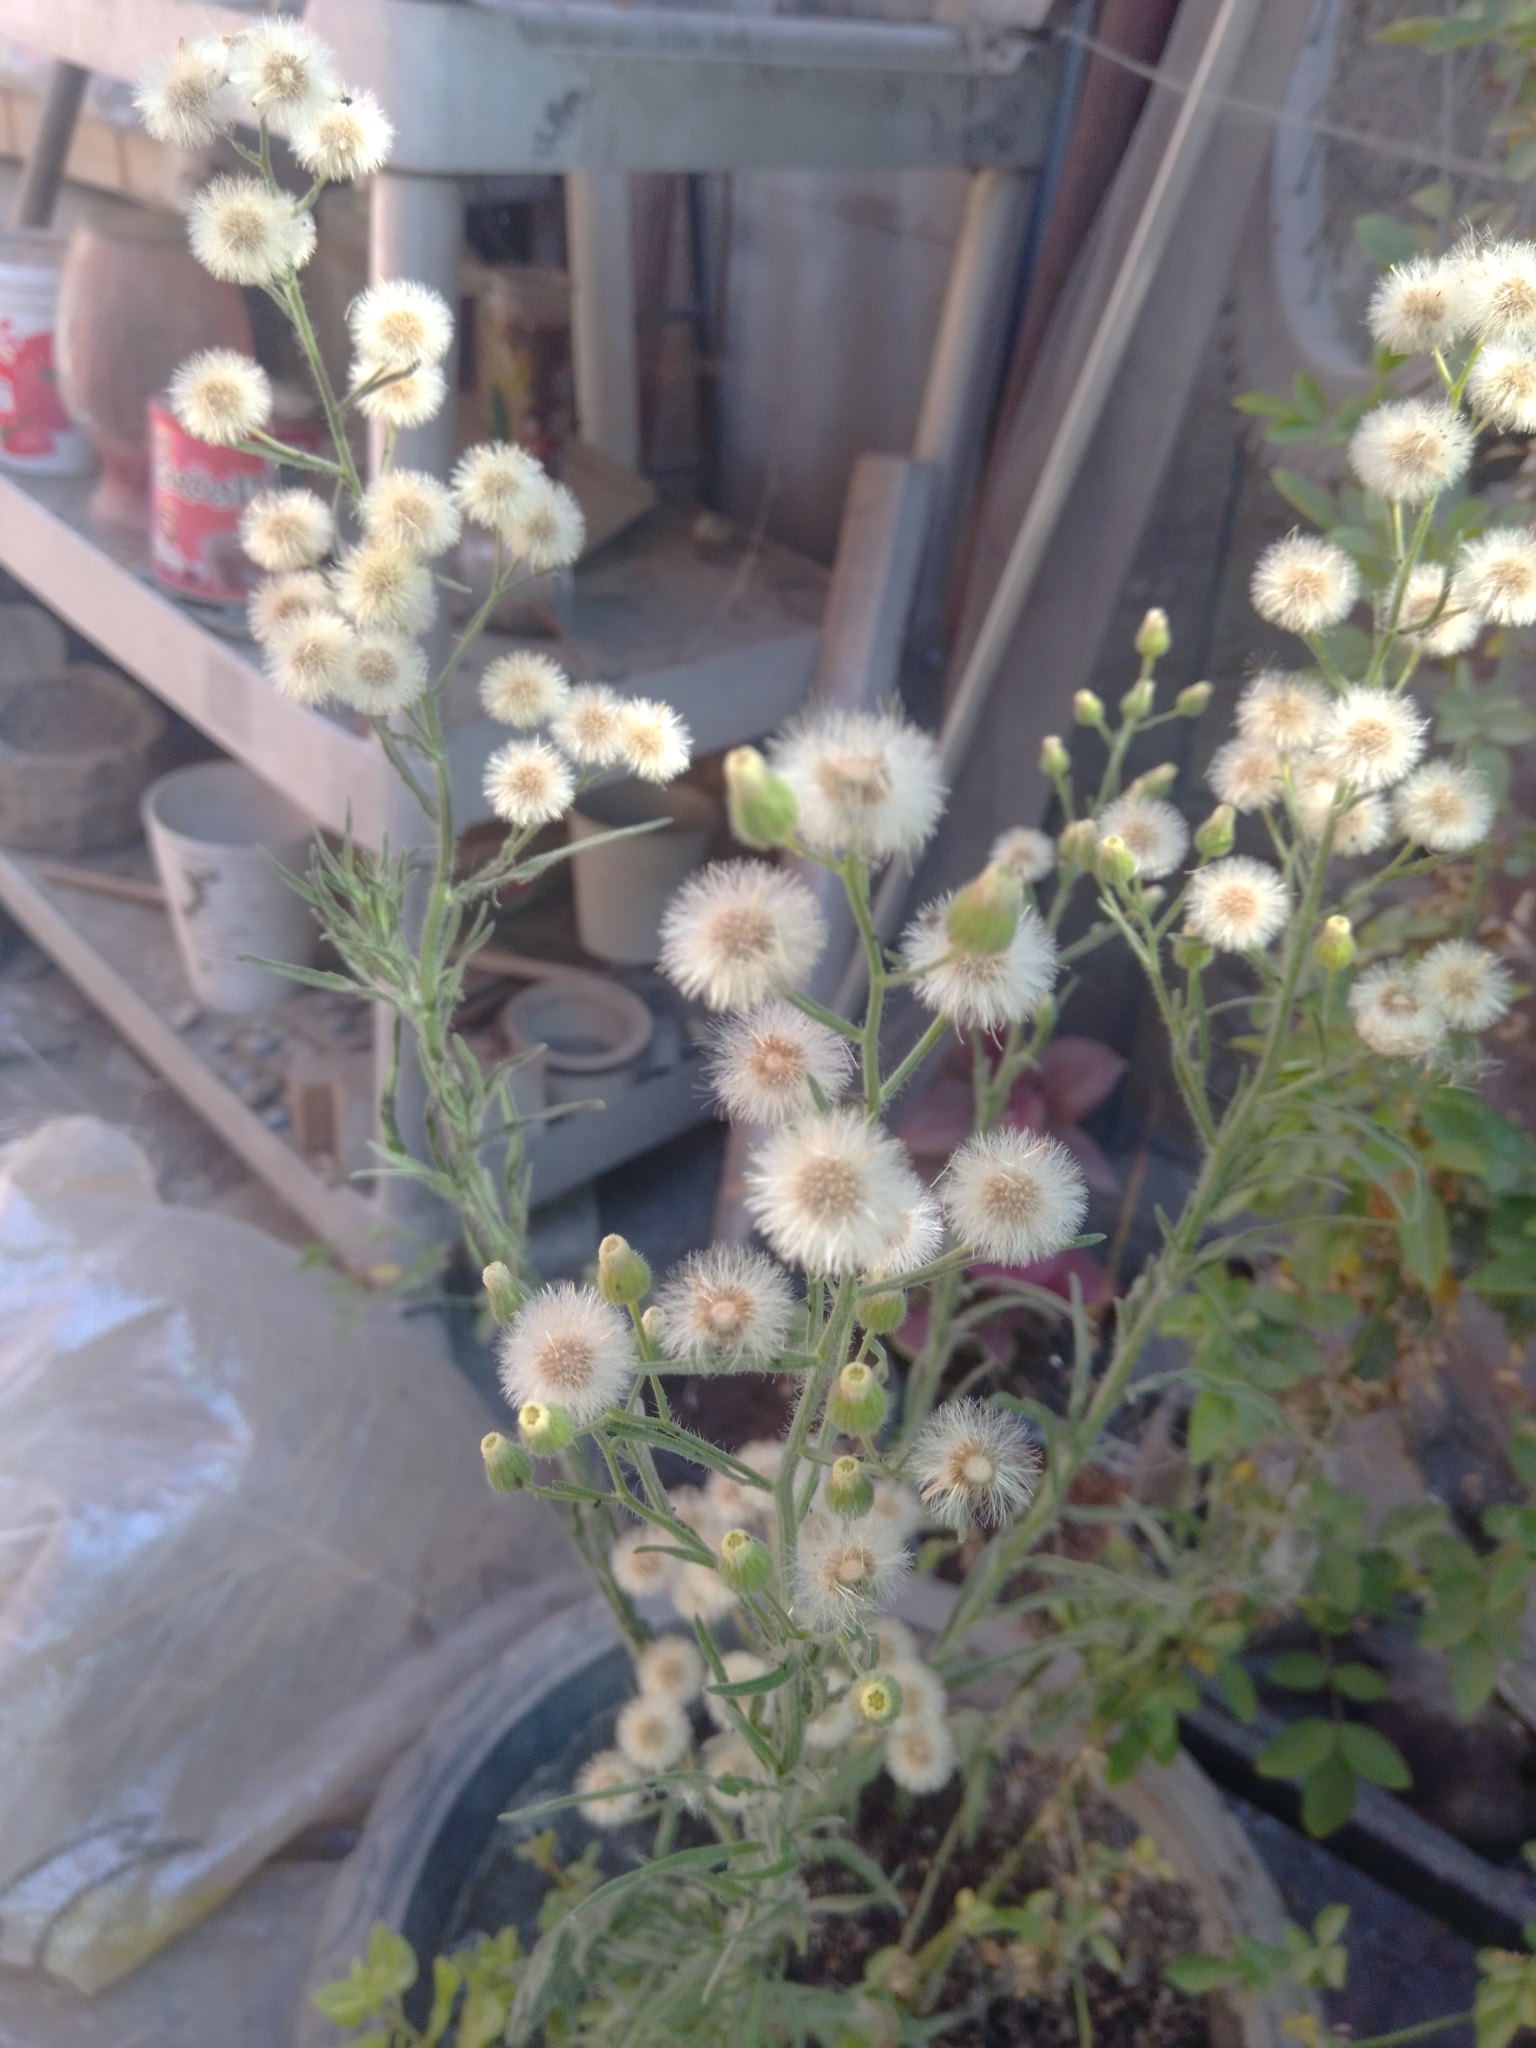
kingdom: Plantae
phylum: Tracheophyta
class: Magnoliopsida
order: Asterales
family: Asteraceae
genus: Erigeron
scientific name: Erigeron bonariensis
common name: Argentine fleabane
